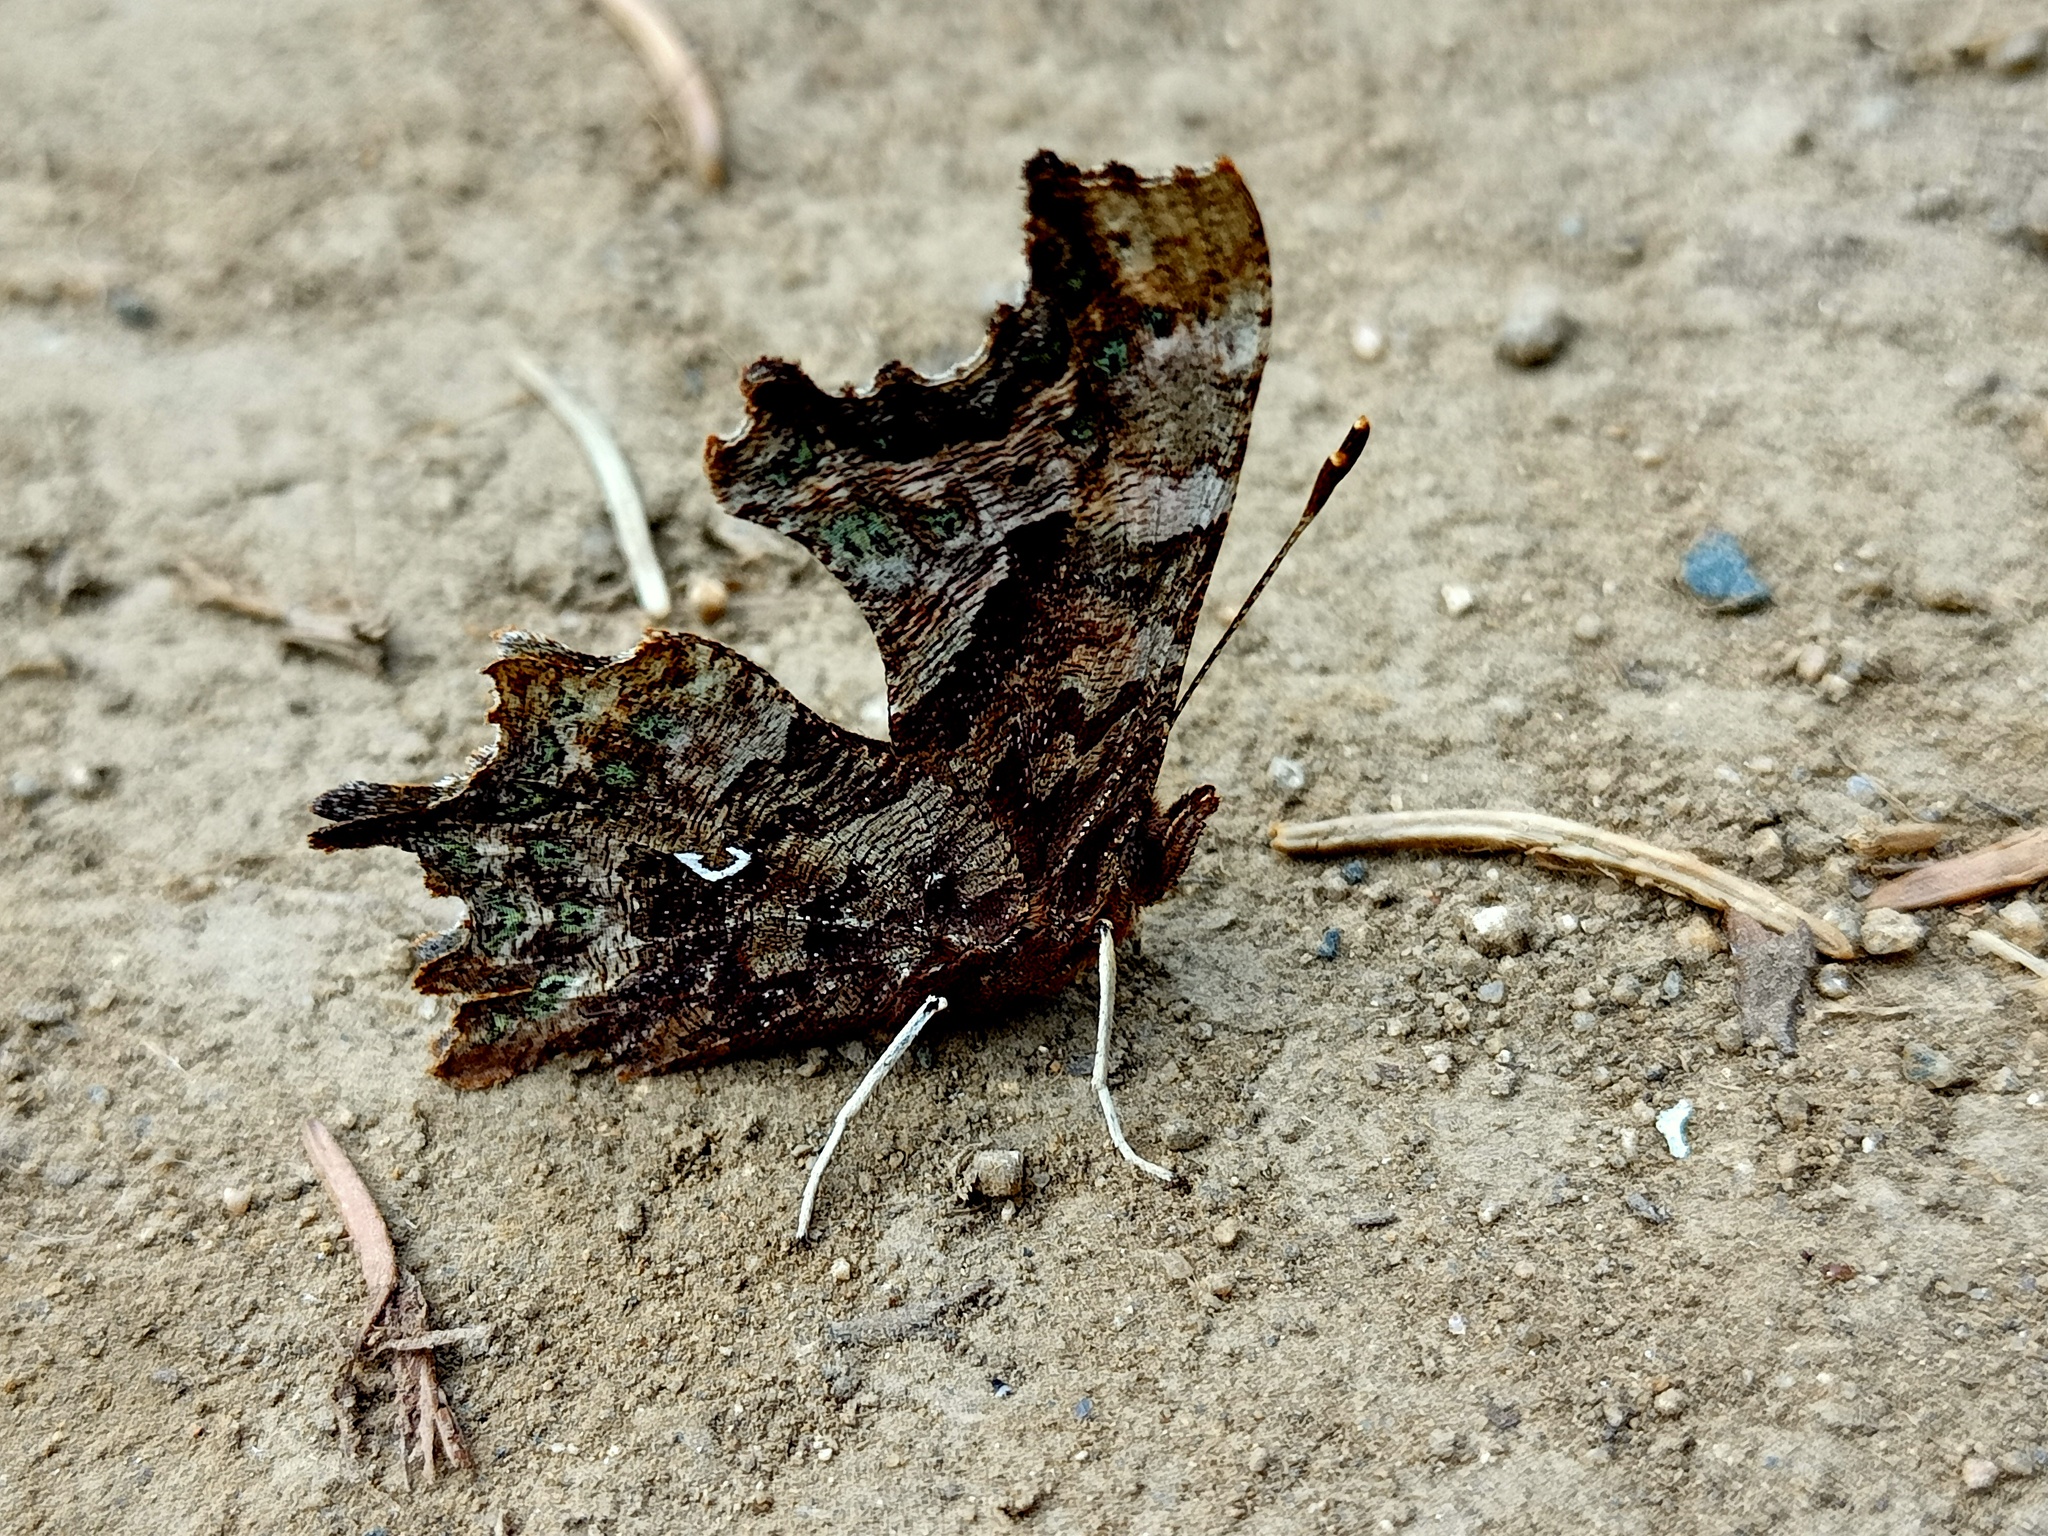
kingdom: Animalia
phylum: Arthropoda
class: Insecta
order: Lepidoptera
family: Nymphalidae
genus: Polygonia
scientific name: Polygonia c-album
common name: Comma
